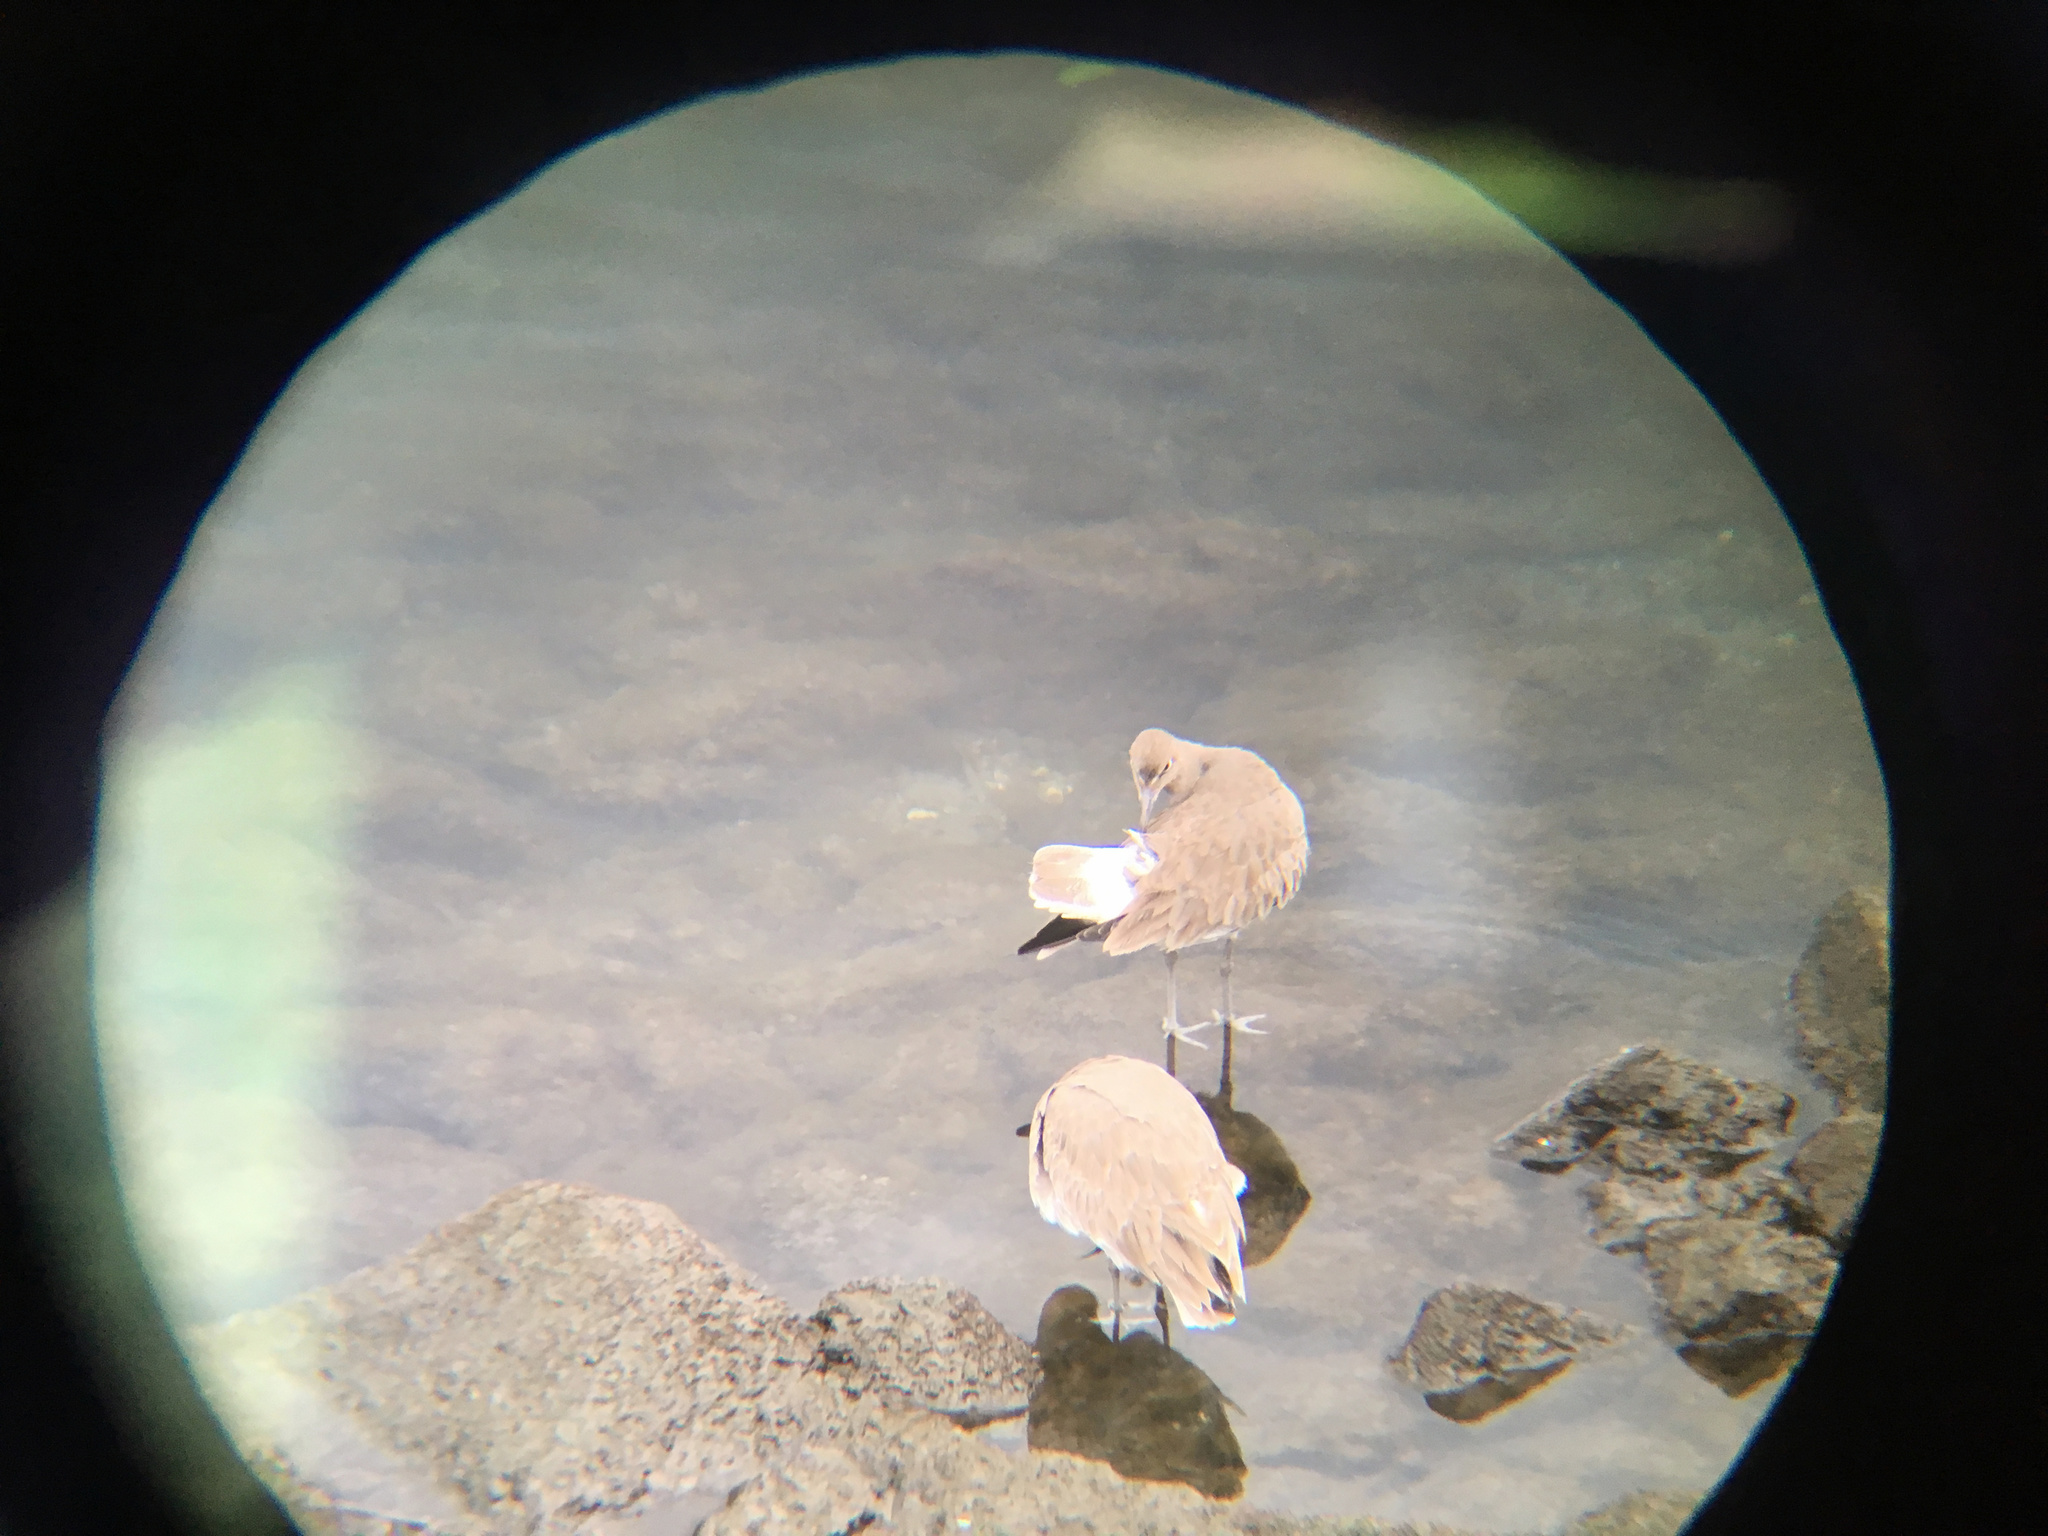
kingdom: Animalia
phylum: Chordata
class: Aves
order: Charadriiformes
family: Scolopacidae
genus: Tringa
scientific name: Tringa semipalmata
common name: Willet
